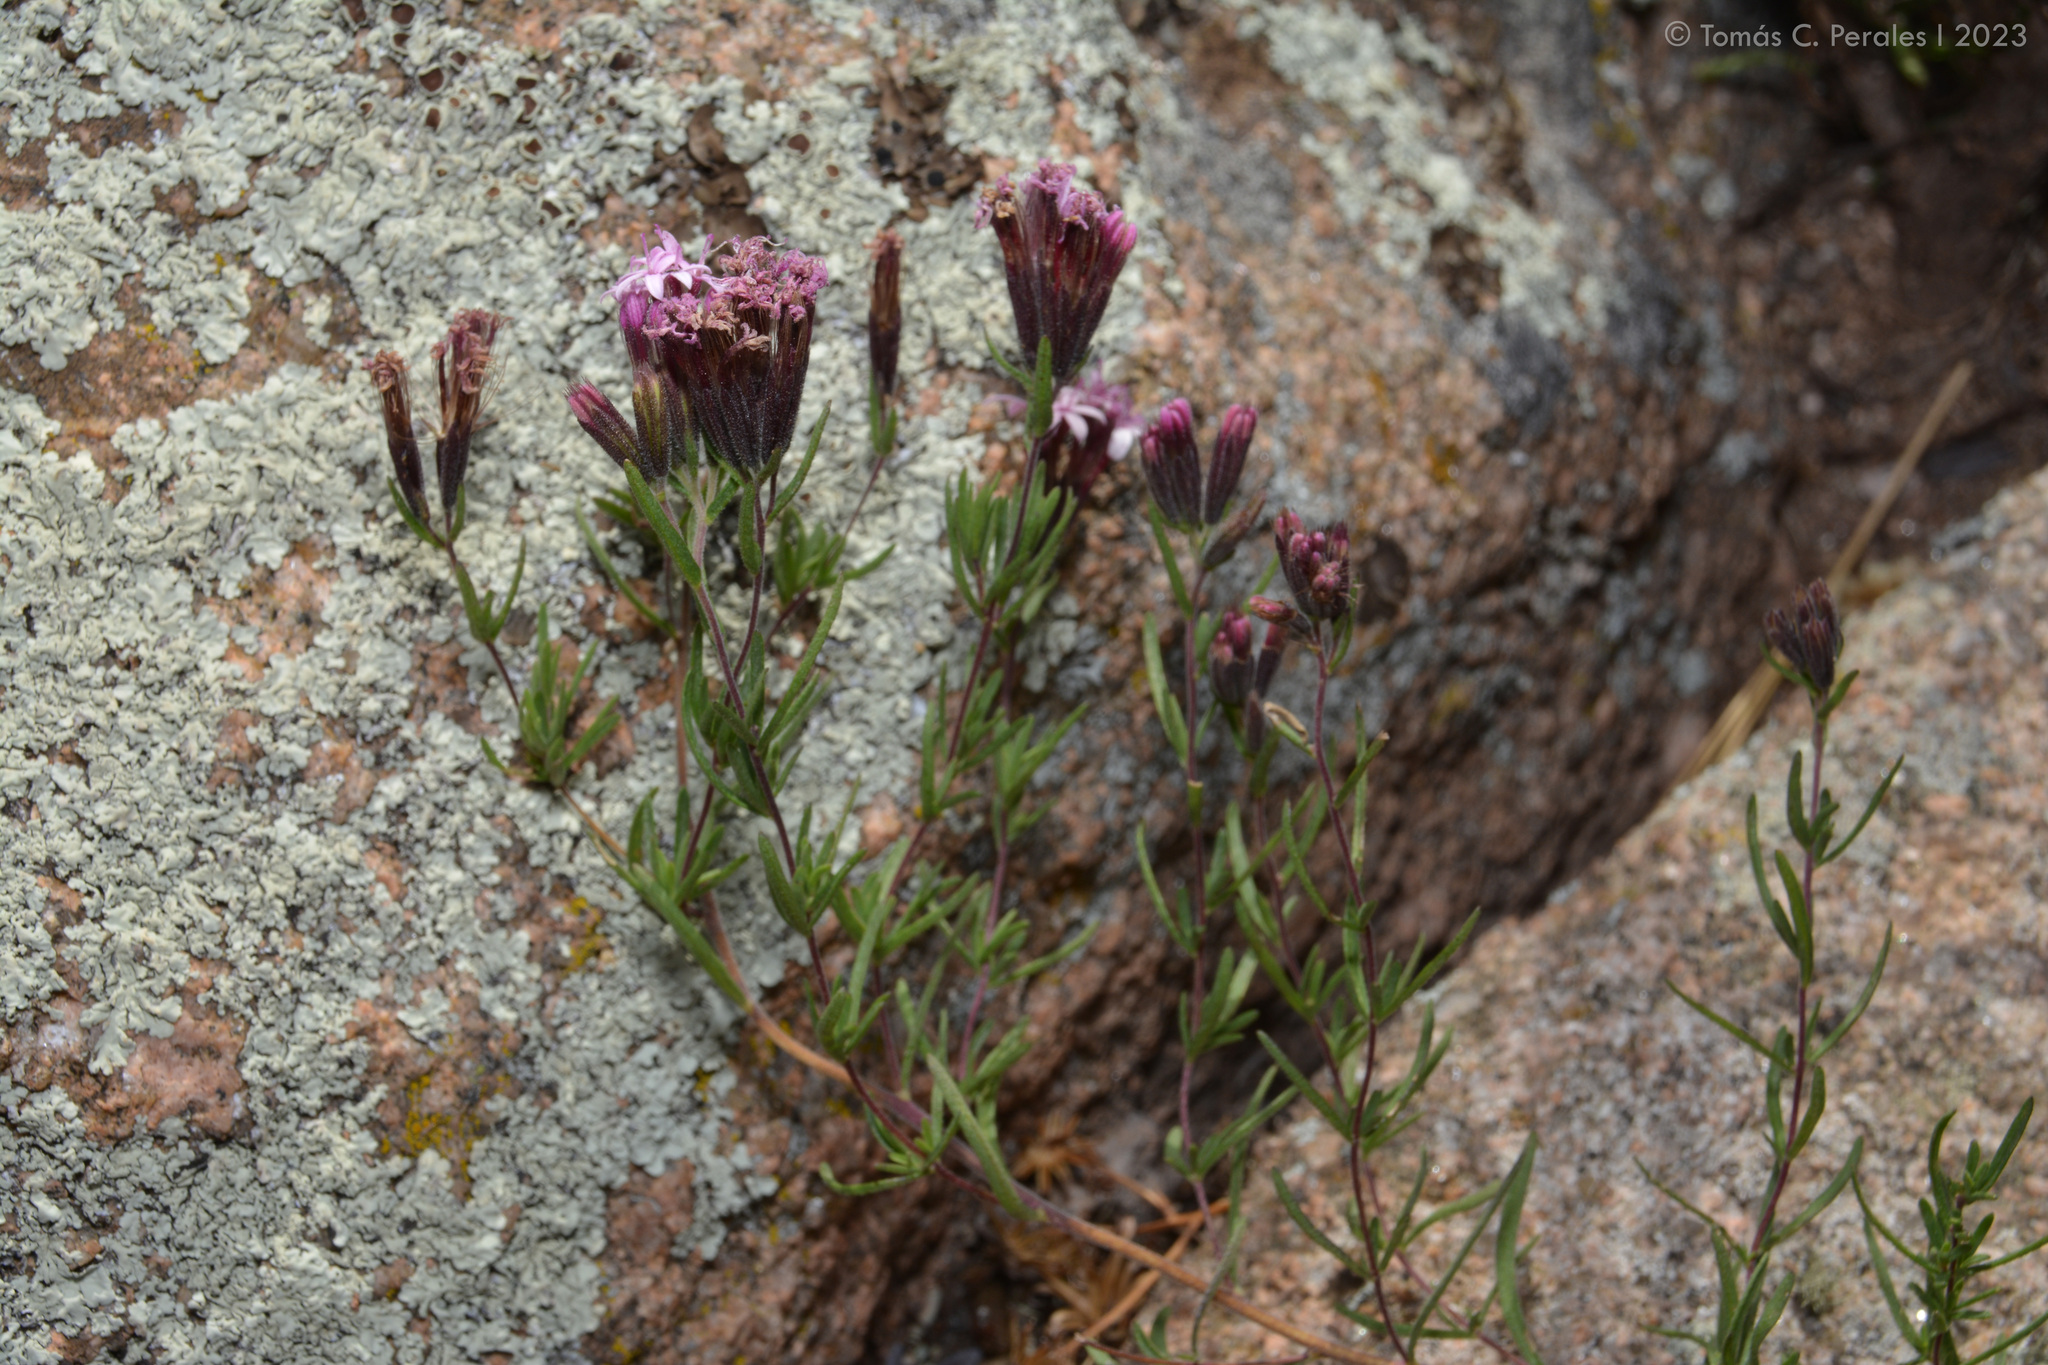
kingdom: Plantae
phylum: Tracheophyta
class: Magnoliopsida
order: Asterales
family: Asteraceae
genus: Stevia
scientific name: Stevia satureifolia
